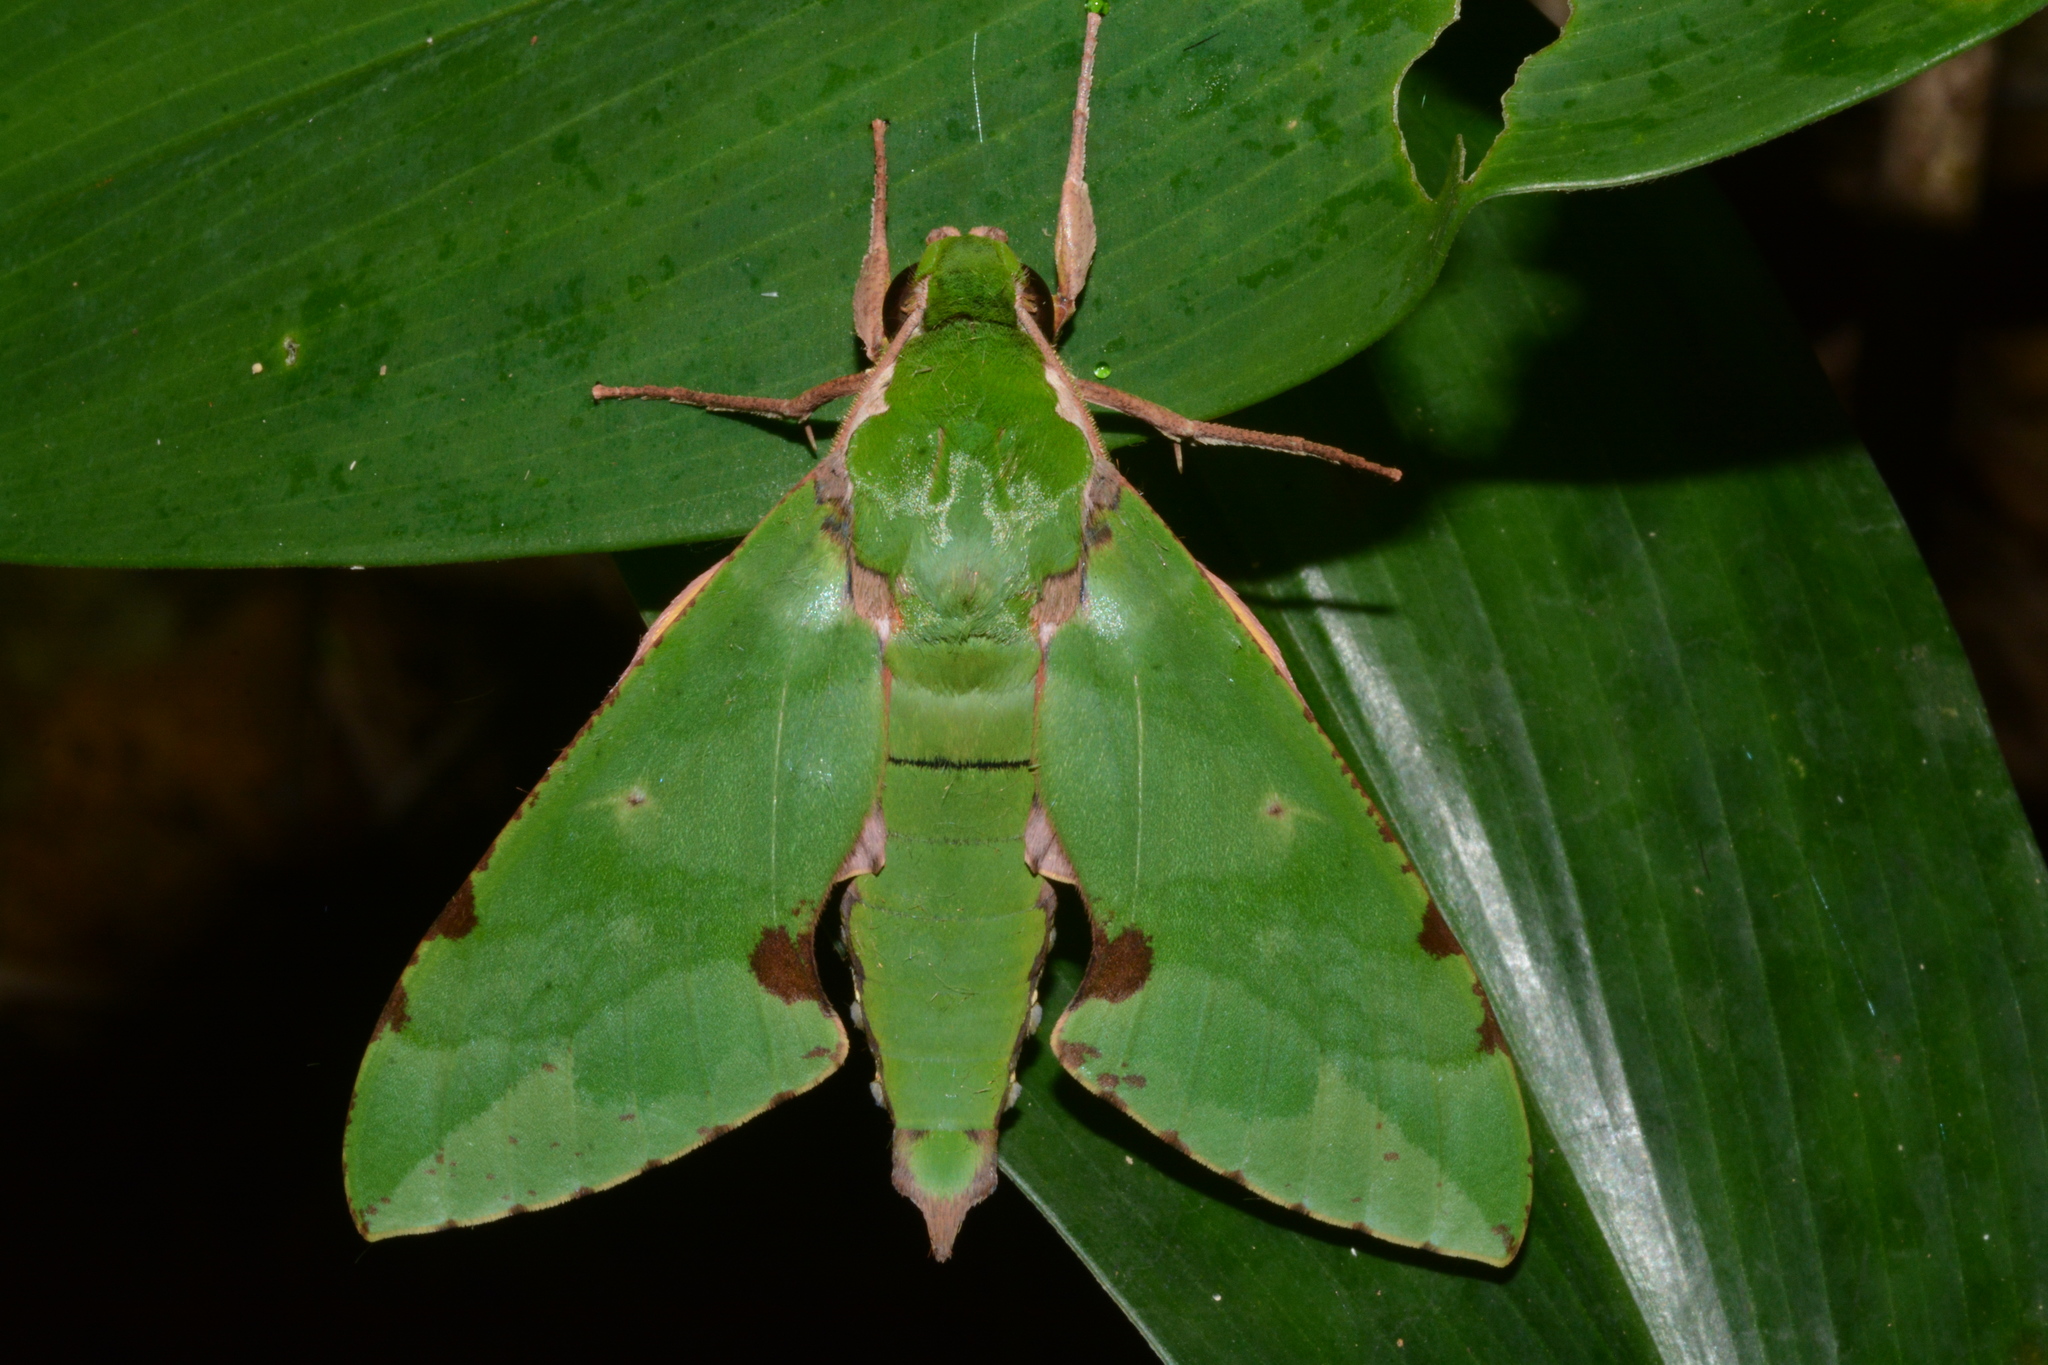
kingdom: Animalia
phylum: Arthropoda
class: Insecta
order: Lepidoptera
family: Sphingidae
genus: Euchloron
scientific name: Euchloron megaera
